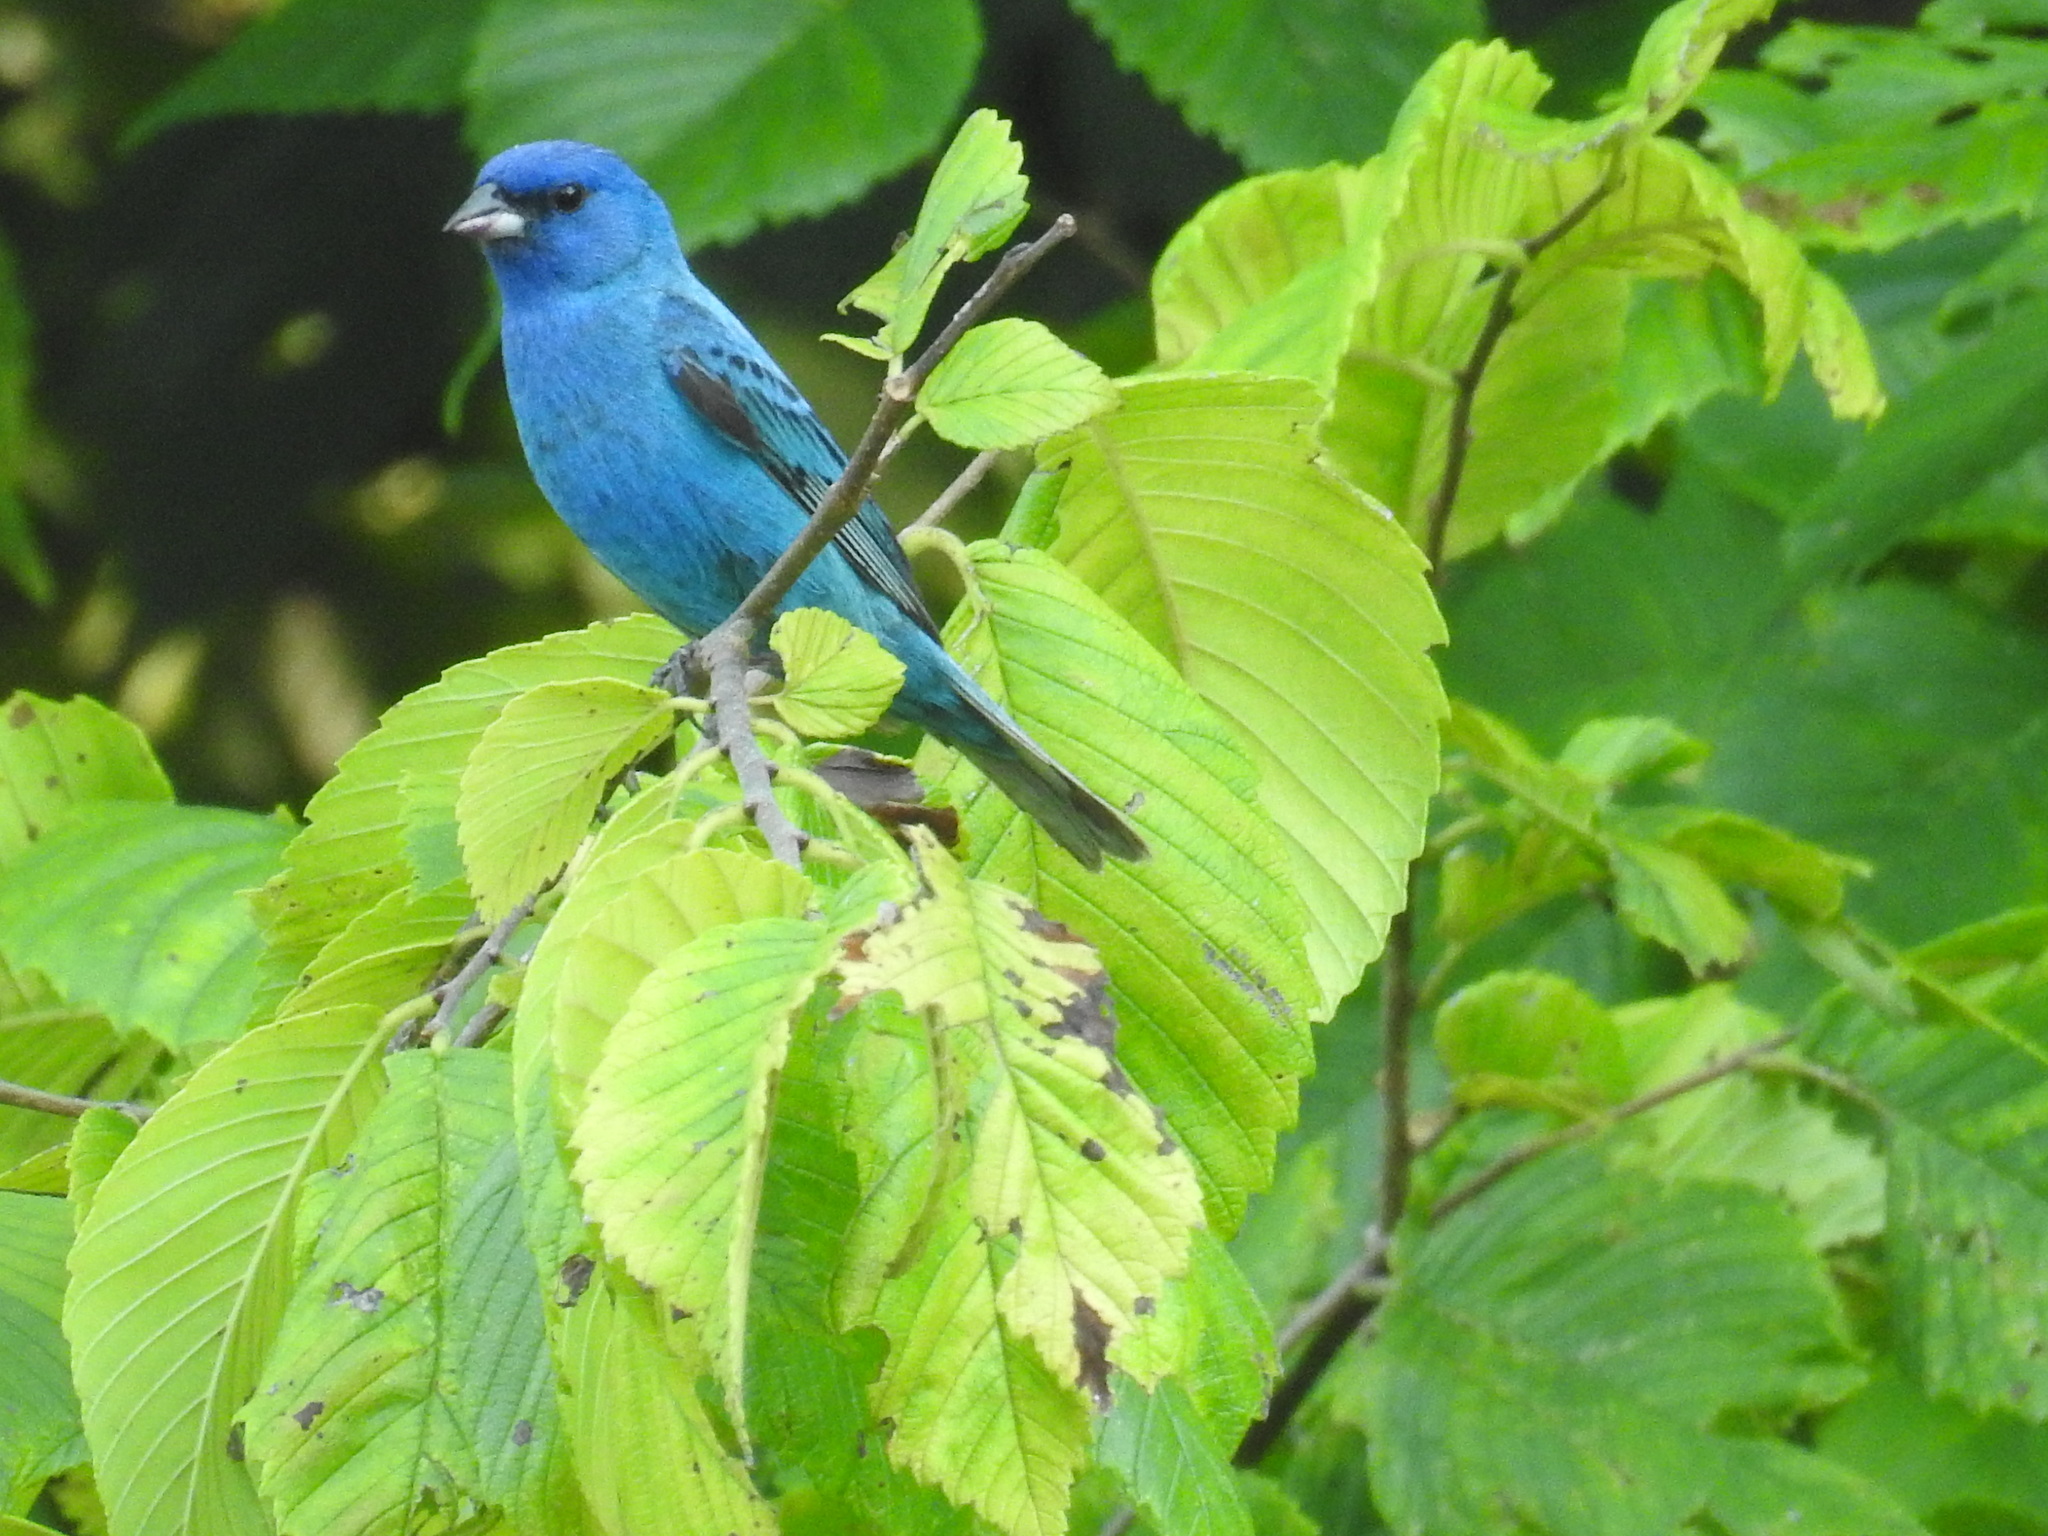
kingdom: Animalia
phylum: Chordata
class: Aves
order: Passeriformes
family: Cardinalidae
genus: Passerina
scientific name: Passerina cyanea
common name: Indigo bunting
